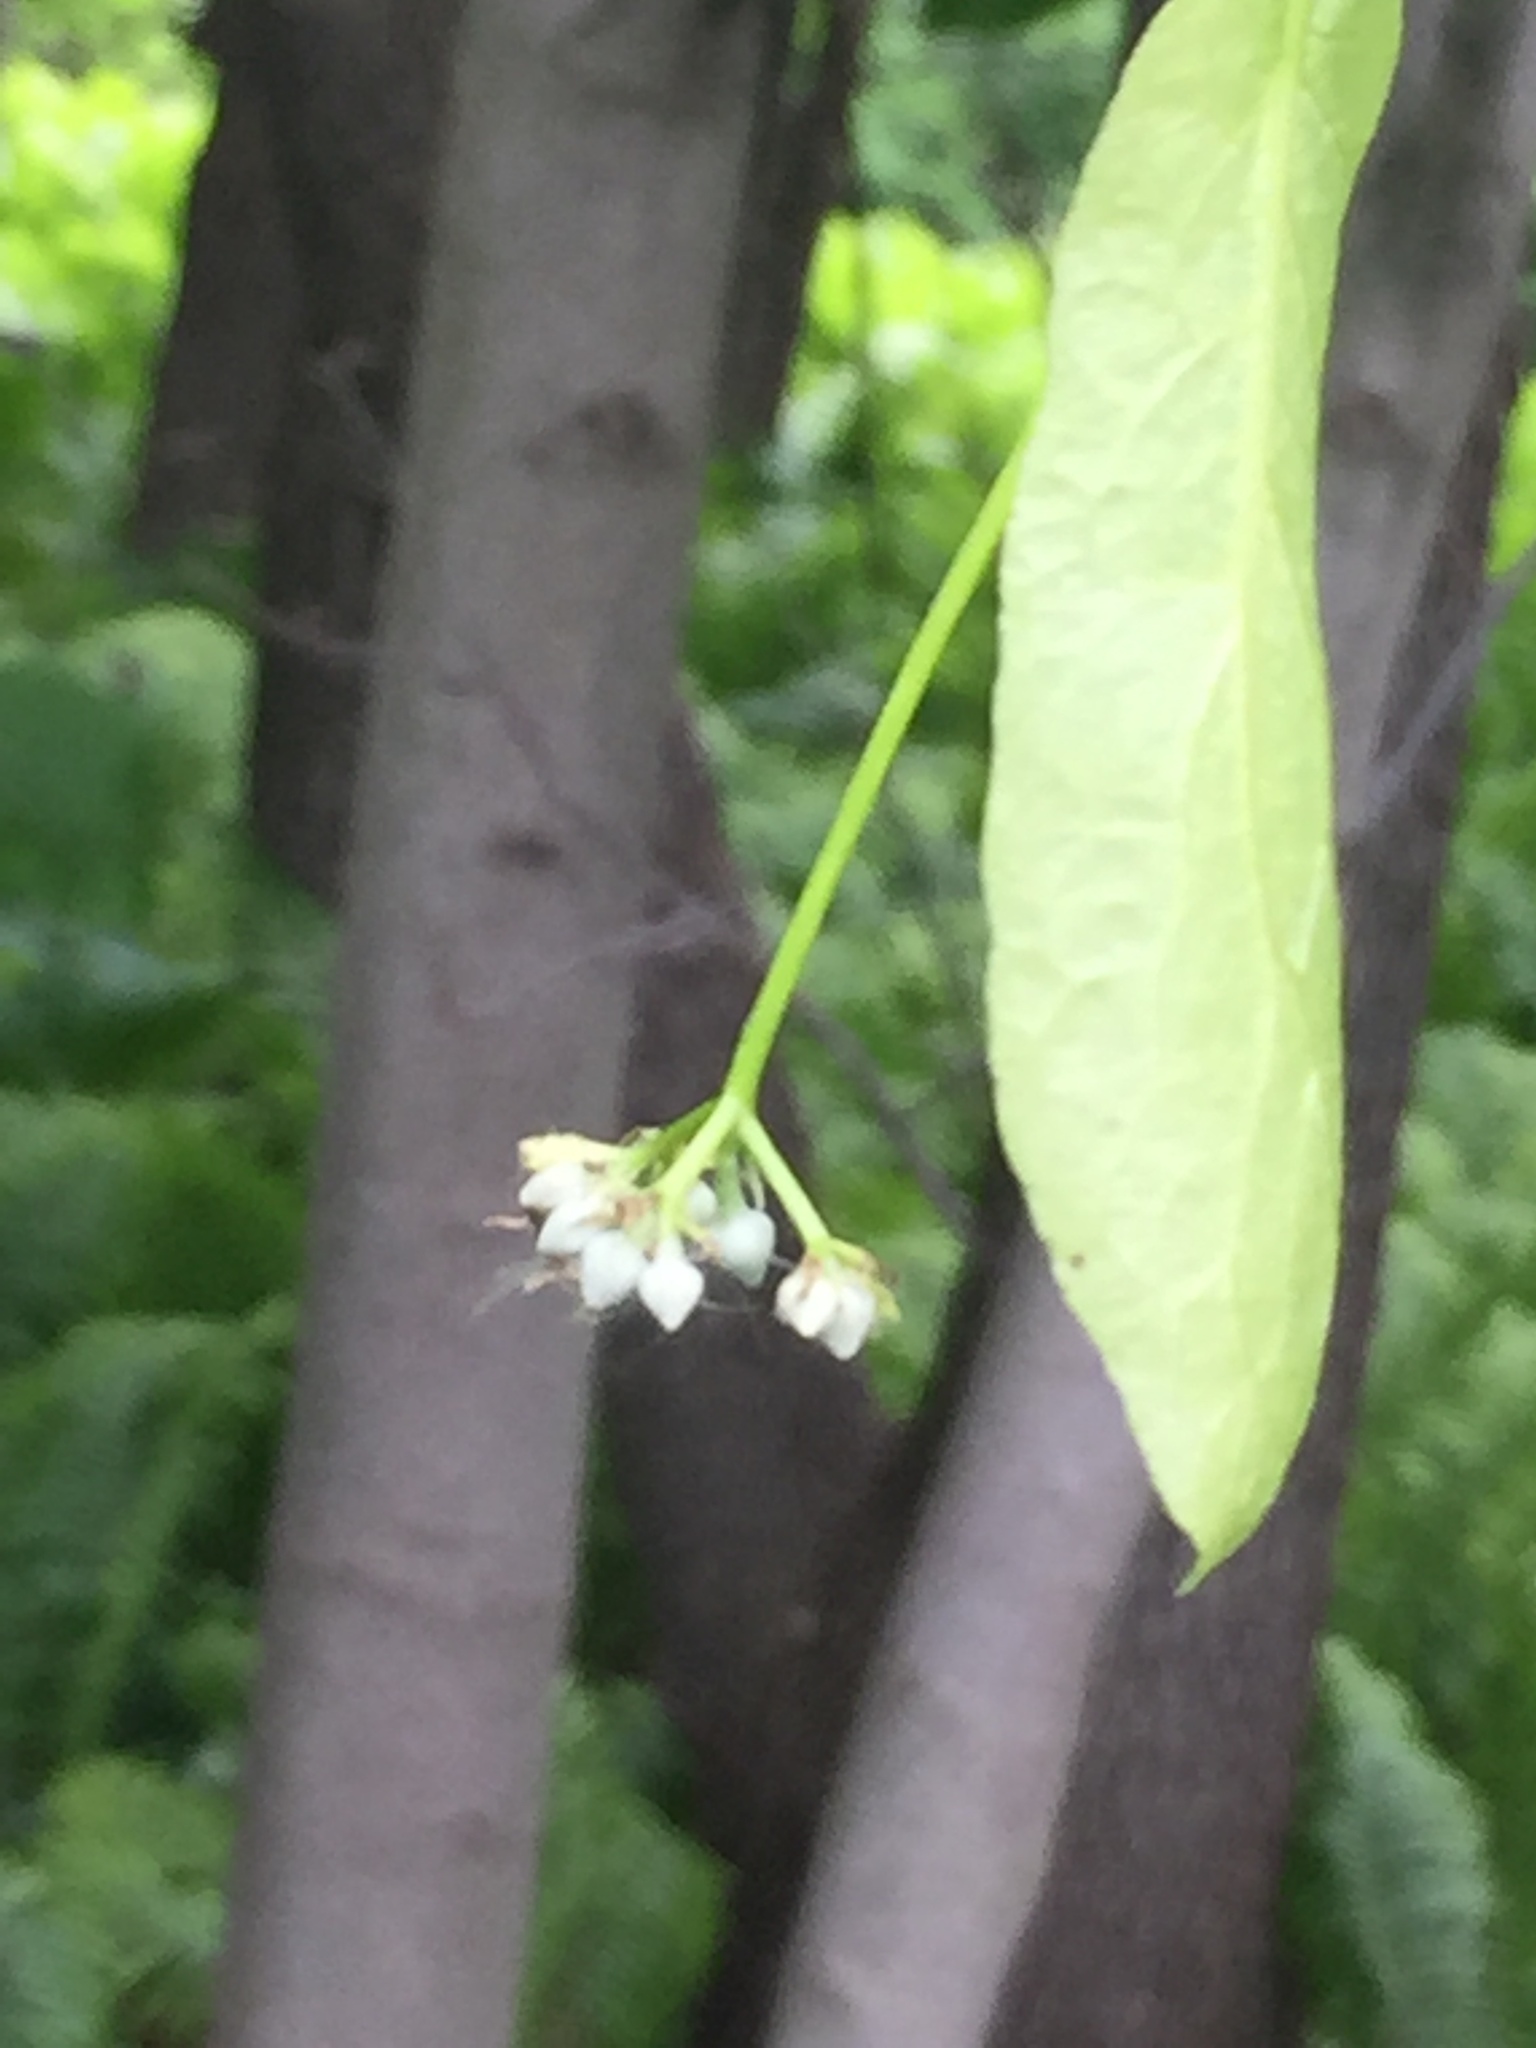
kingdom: Plantae
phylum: Tracheophyta
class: Magnoliopsida
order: Malvales
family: Malvaceae
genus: Tilia
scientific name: Tilia americana
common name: Basswood
